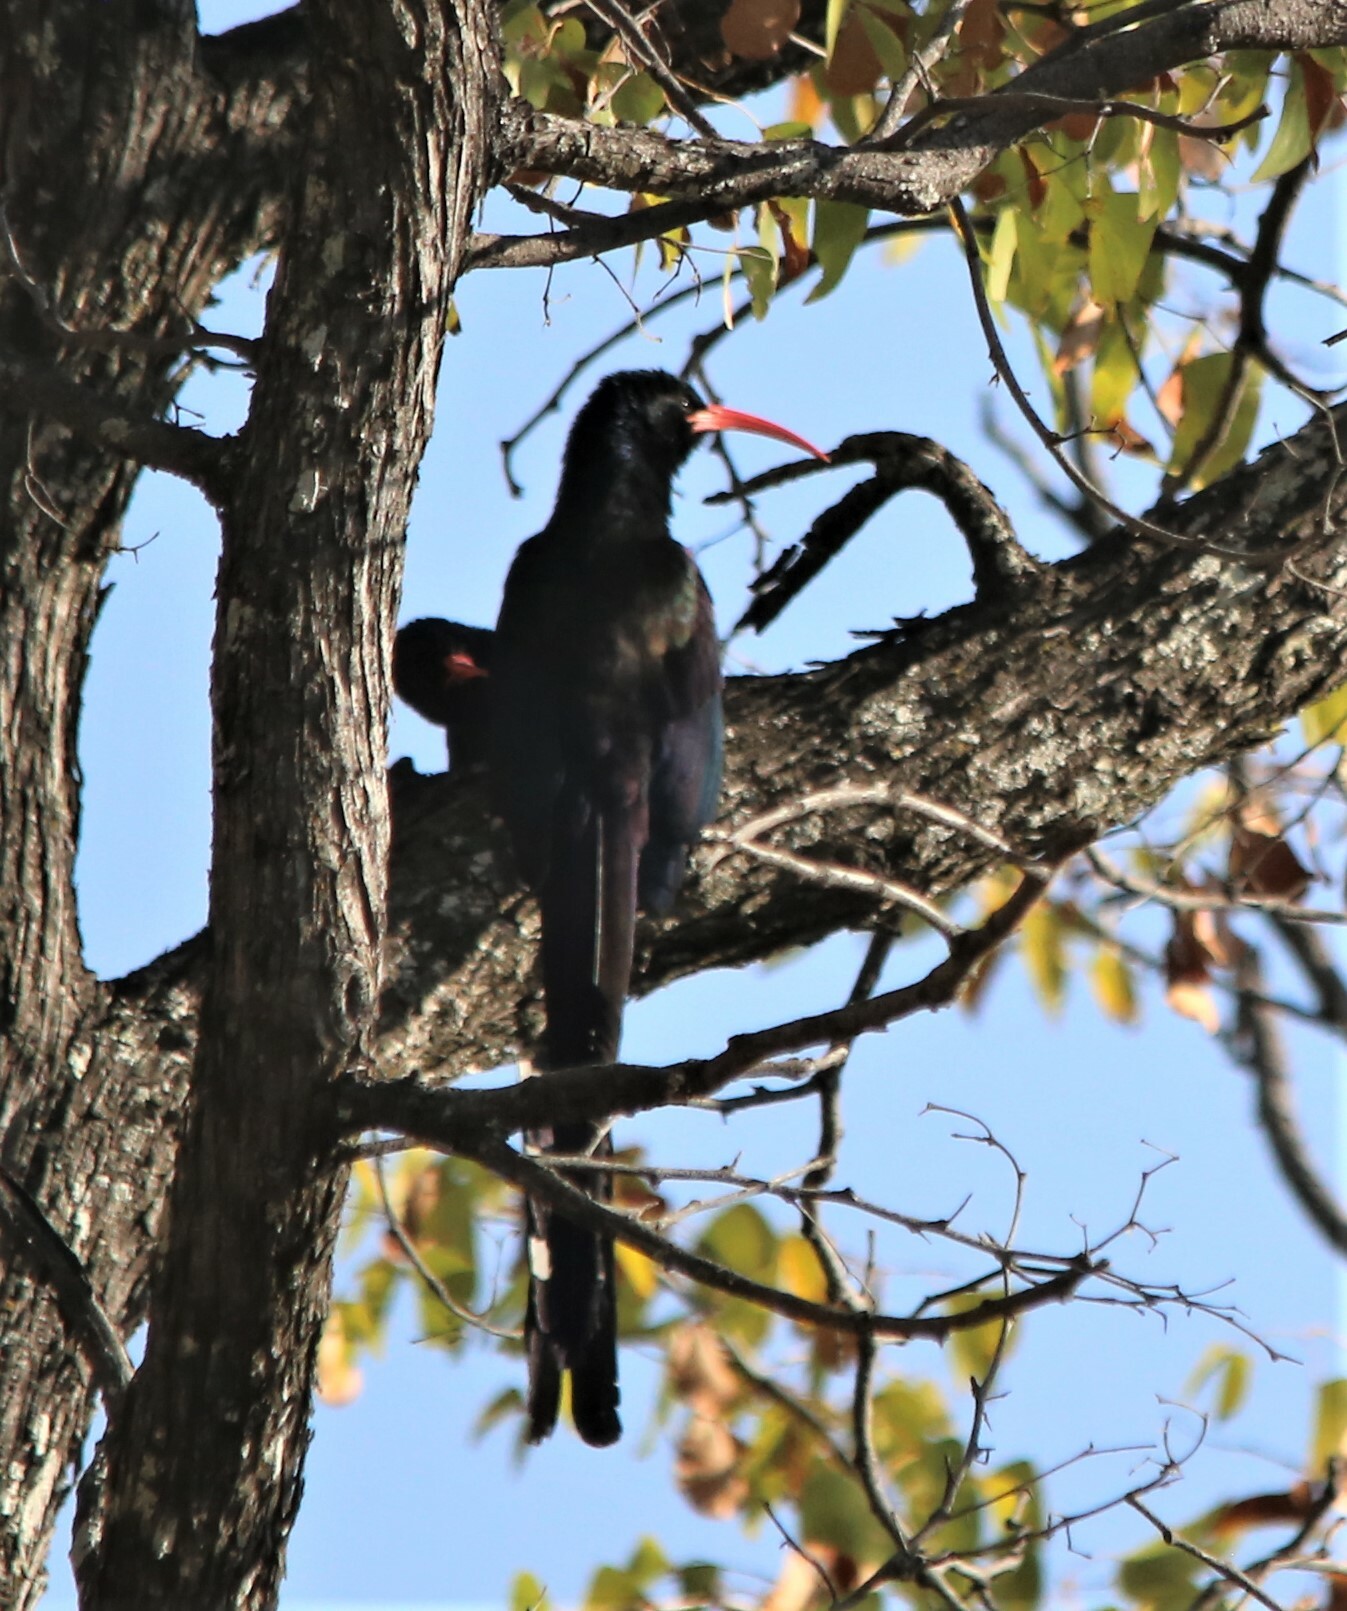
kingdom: Animalia
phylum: Chordata
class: Aves
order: Bucerotiformes
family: Phoeniculidae
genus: Phoeniculus
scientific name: Phoeniculus purpureus
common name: Green woodhoopoe
